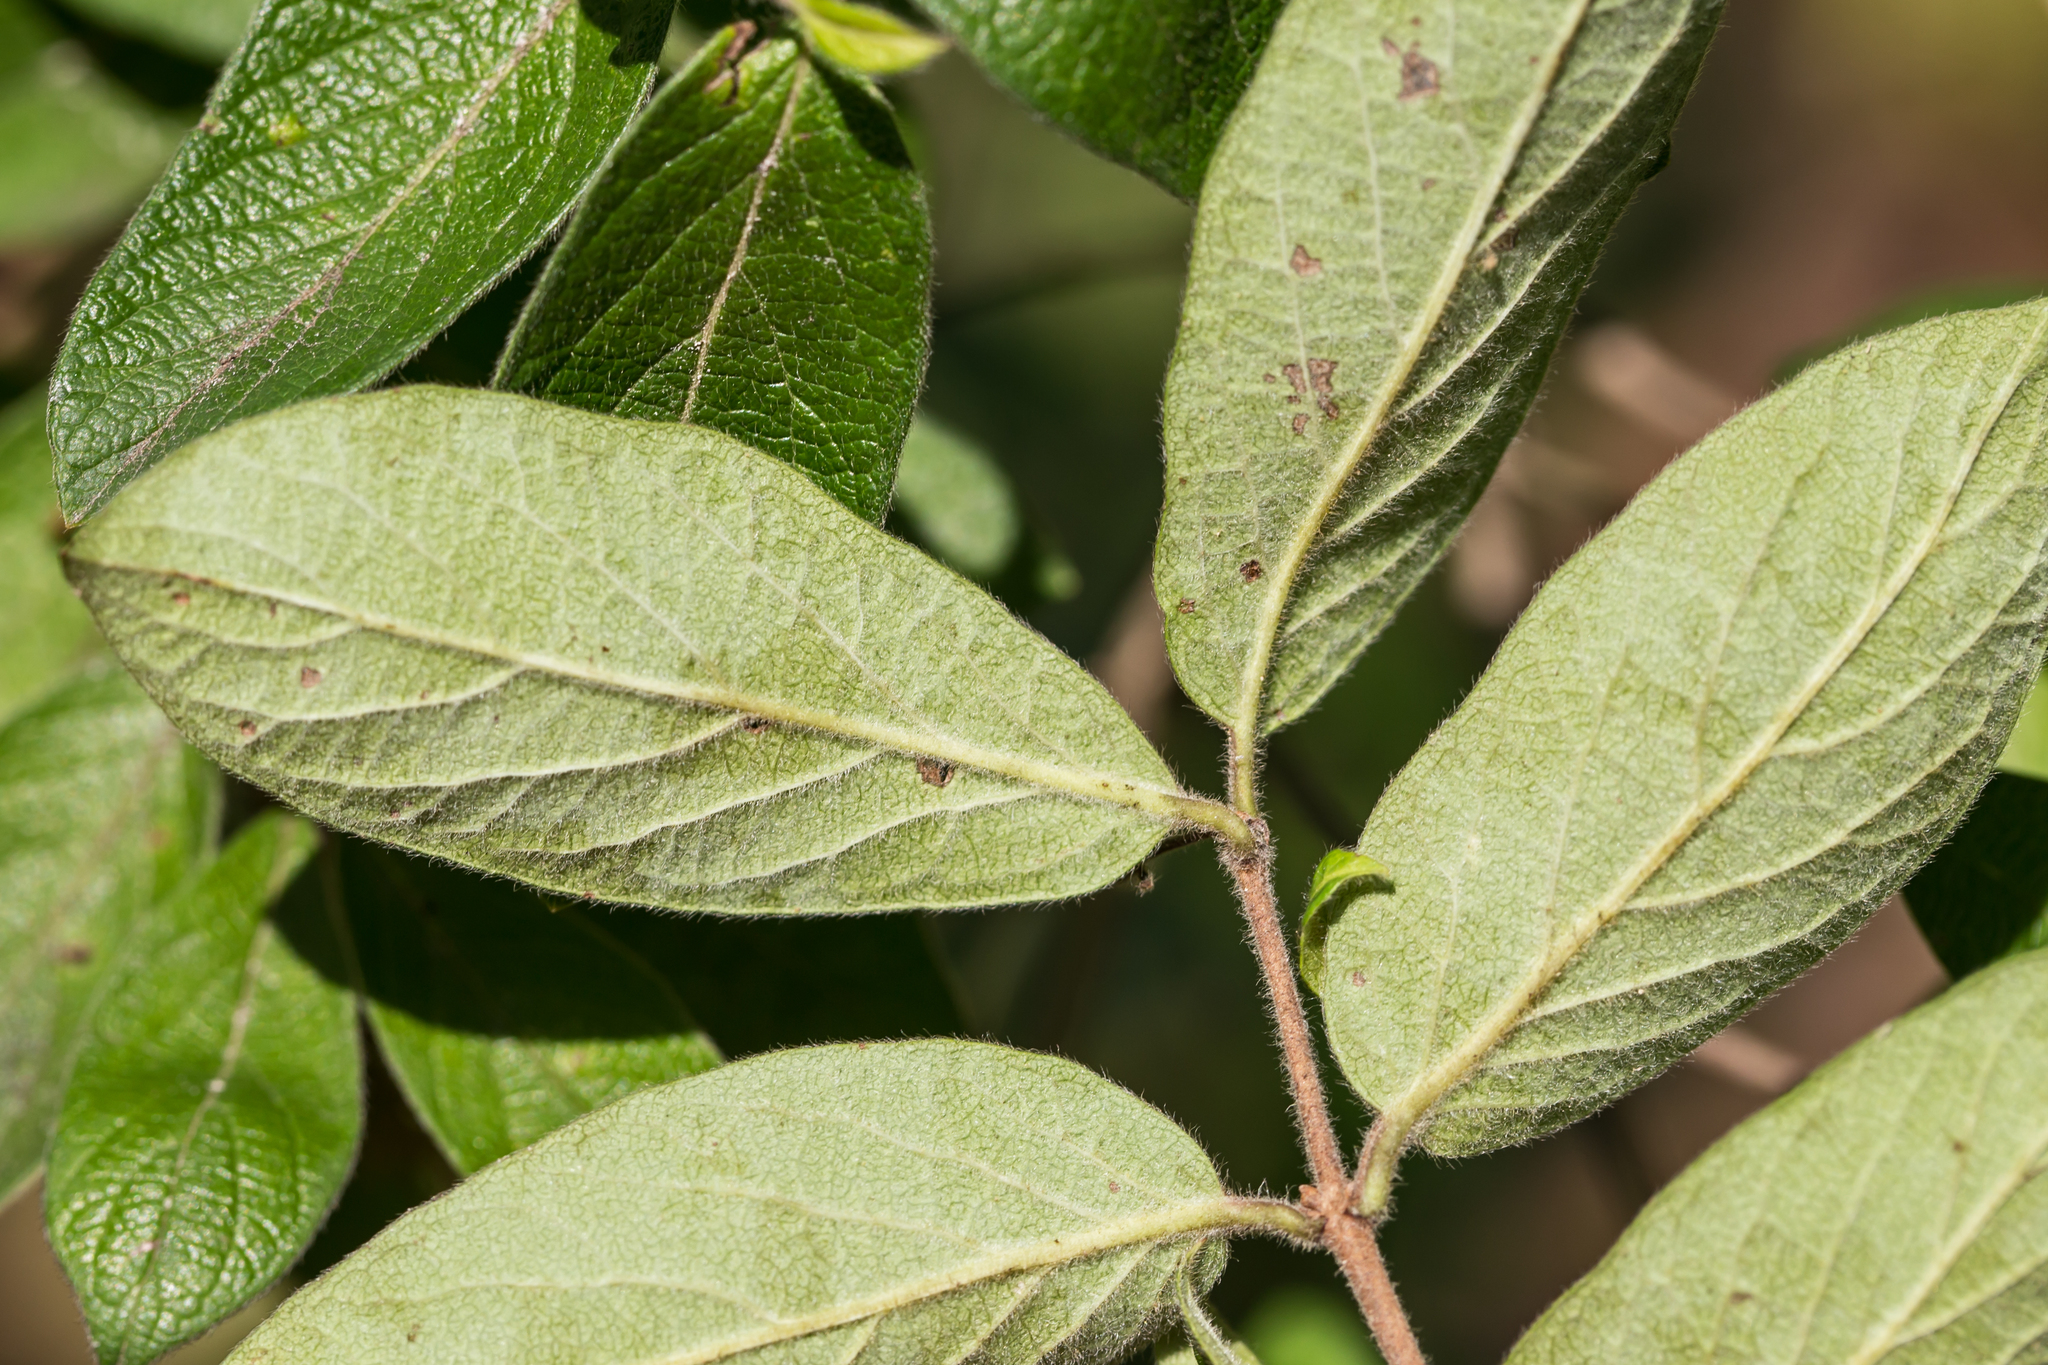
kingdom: Plantae
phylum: Tracheophyta
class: Magnoliopsida
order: Dipsacales
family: Caprifoliaceae
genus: Lonicera
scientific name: Lonicera
